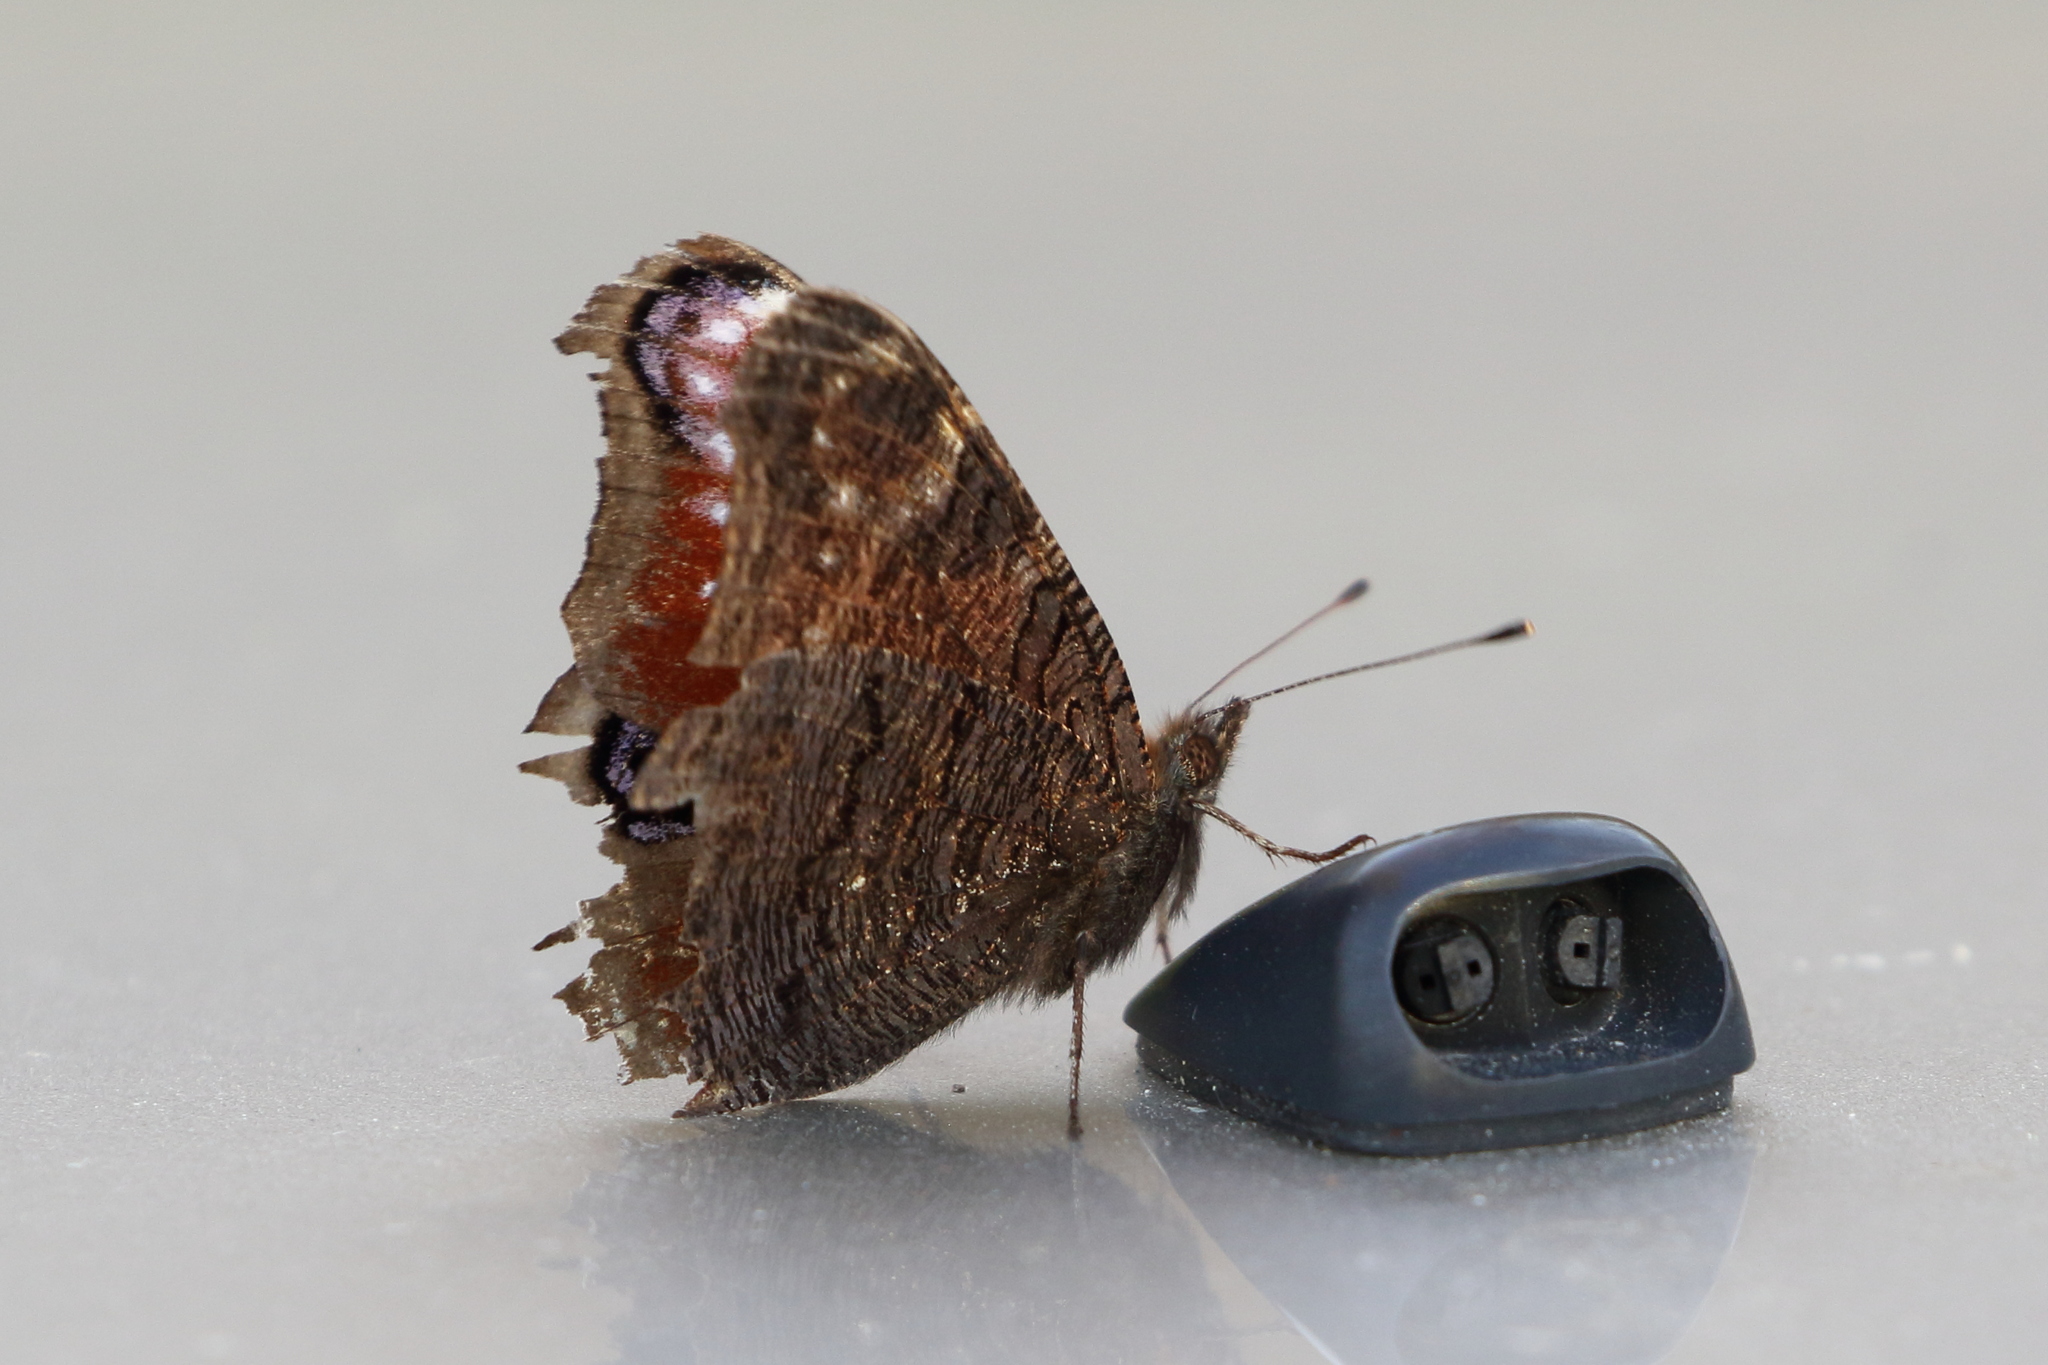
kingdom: Animalia
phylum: Arthropoda
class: Insecta
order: Lepidoptera
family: Nymphalidae
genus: Aglais
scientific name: Aglais io
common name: Peacock
